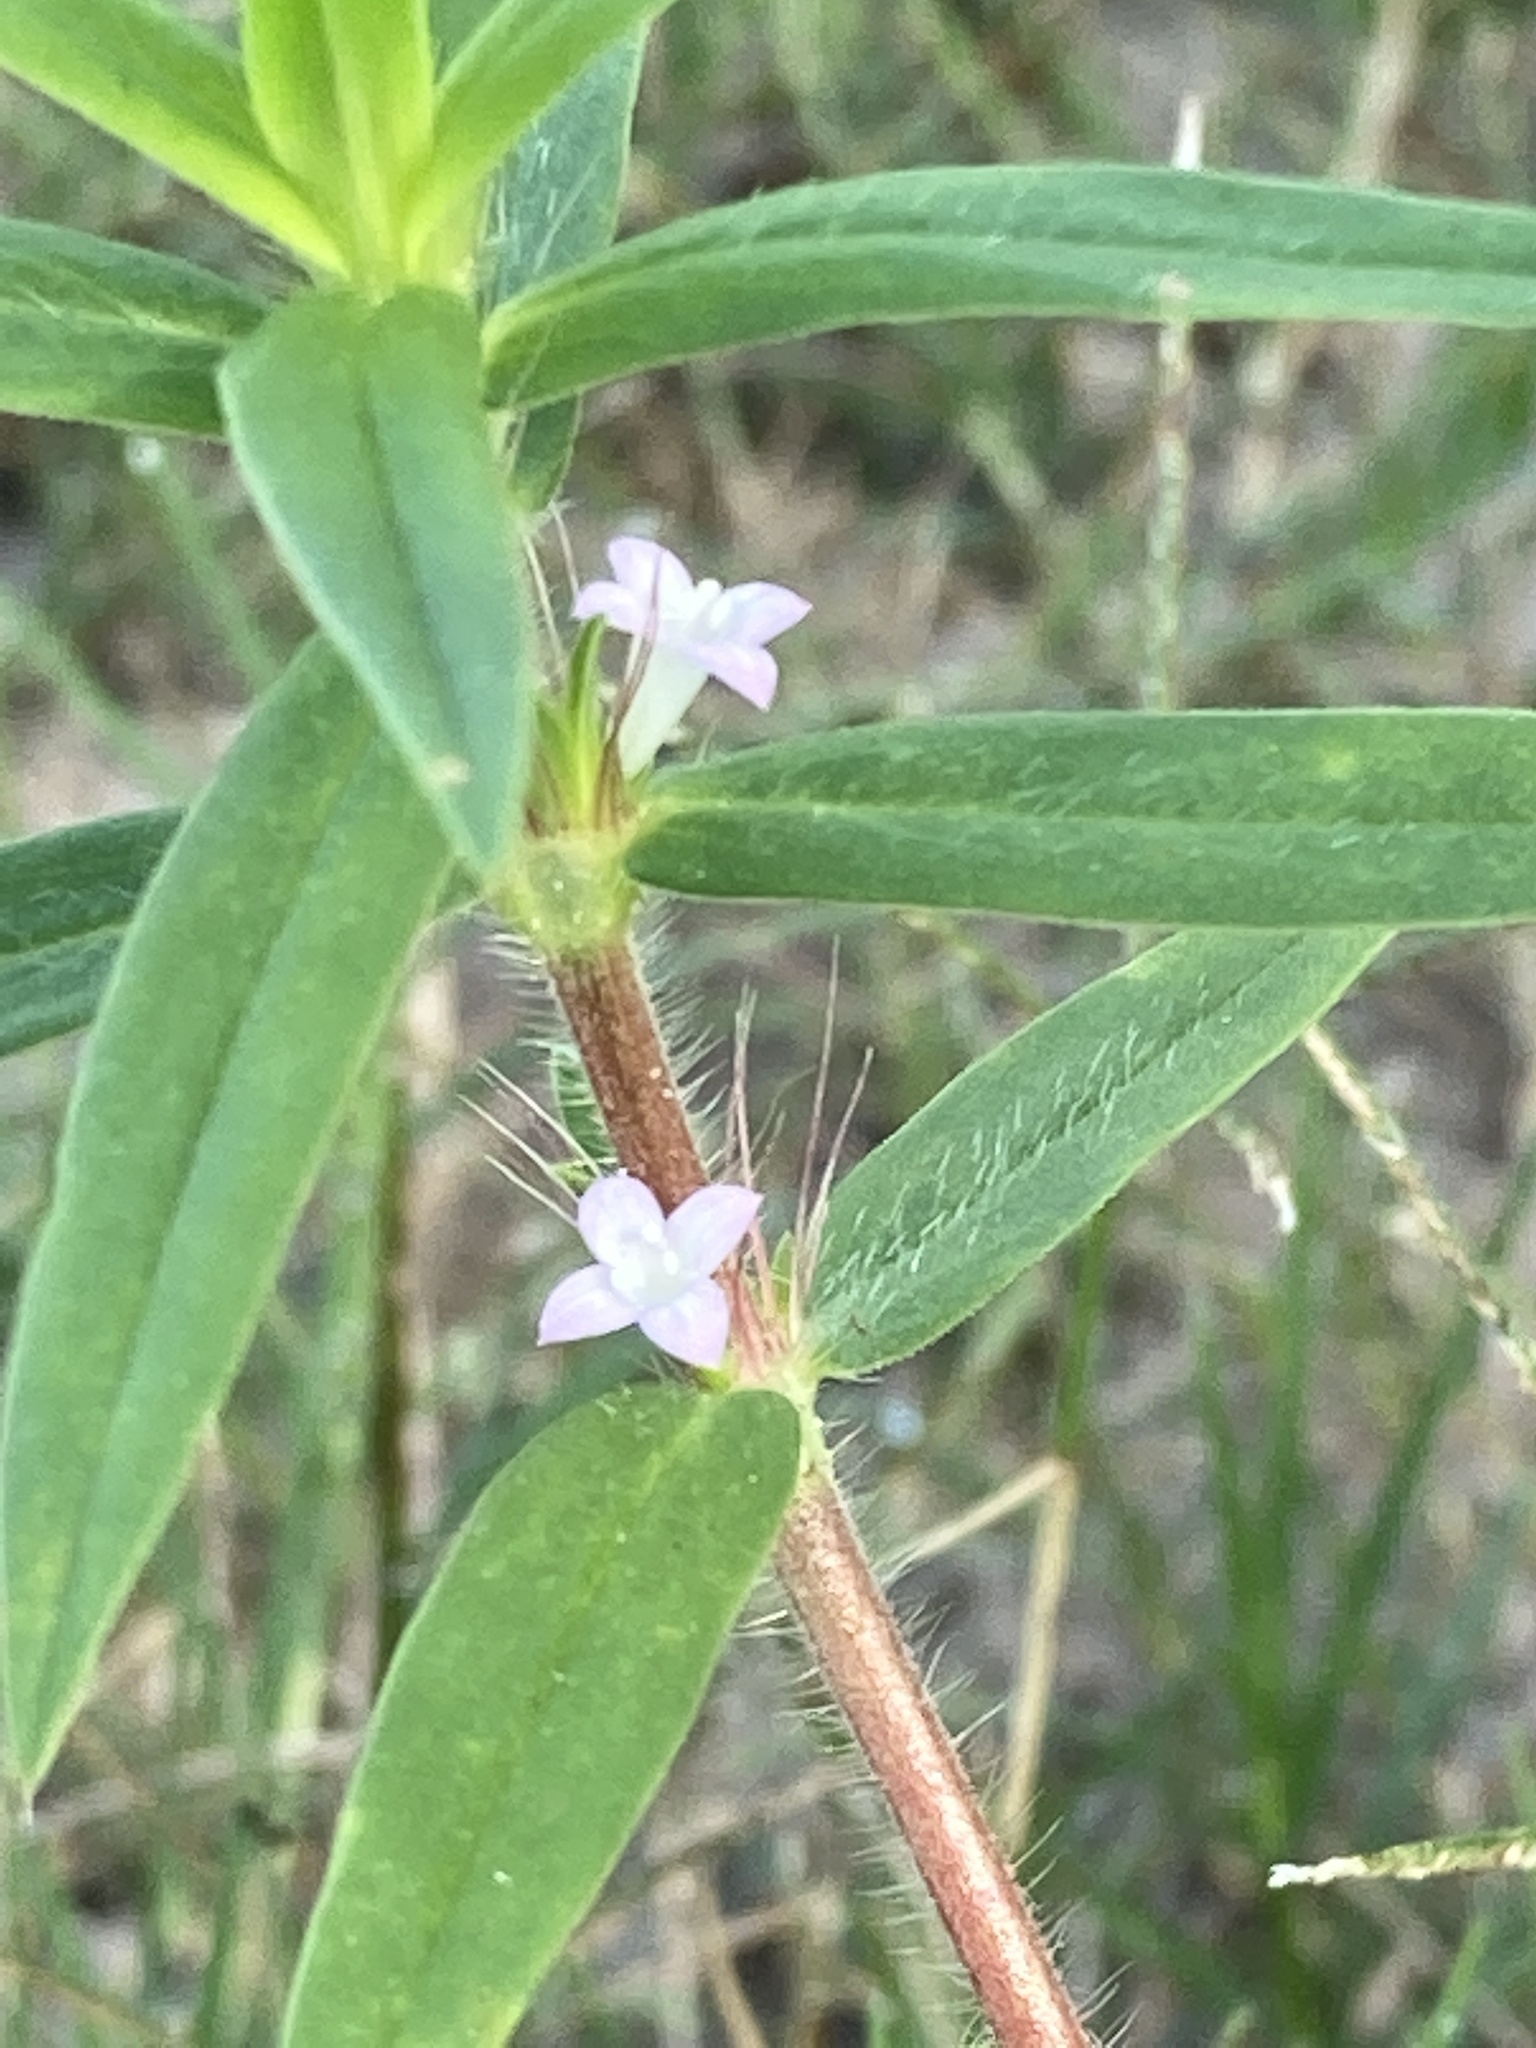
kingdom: Plantae
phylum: Tracheophyta
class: Magnoliopsida
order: Gentianales
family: Rubiaceae
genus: Hexasepalum
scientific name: Hexasepalum teres
